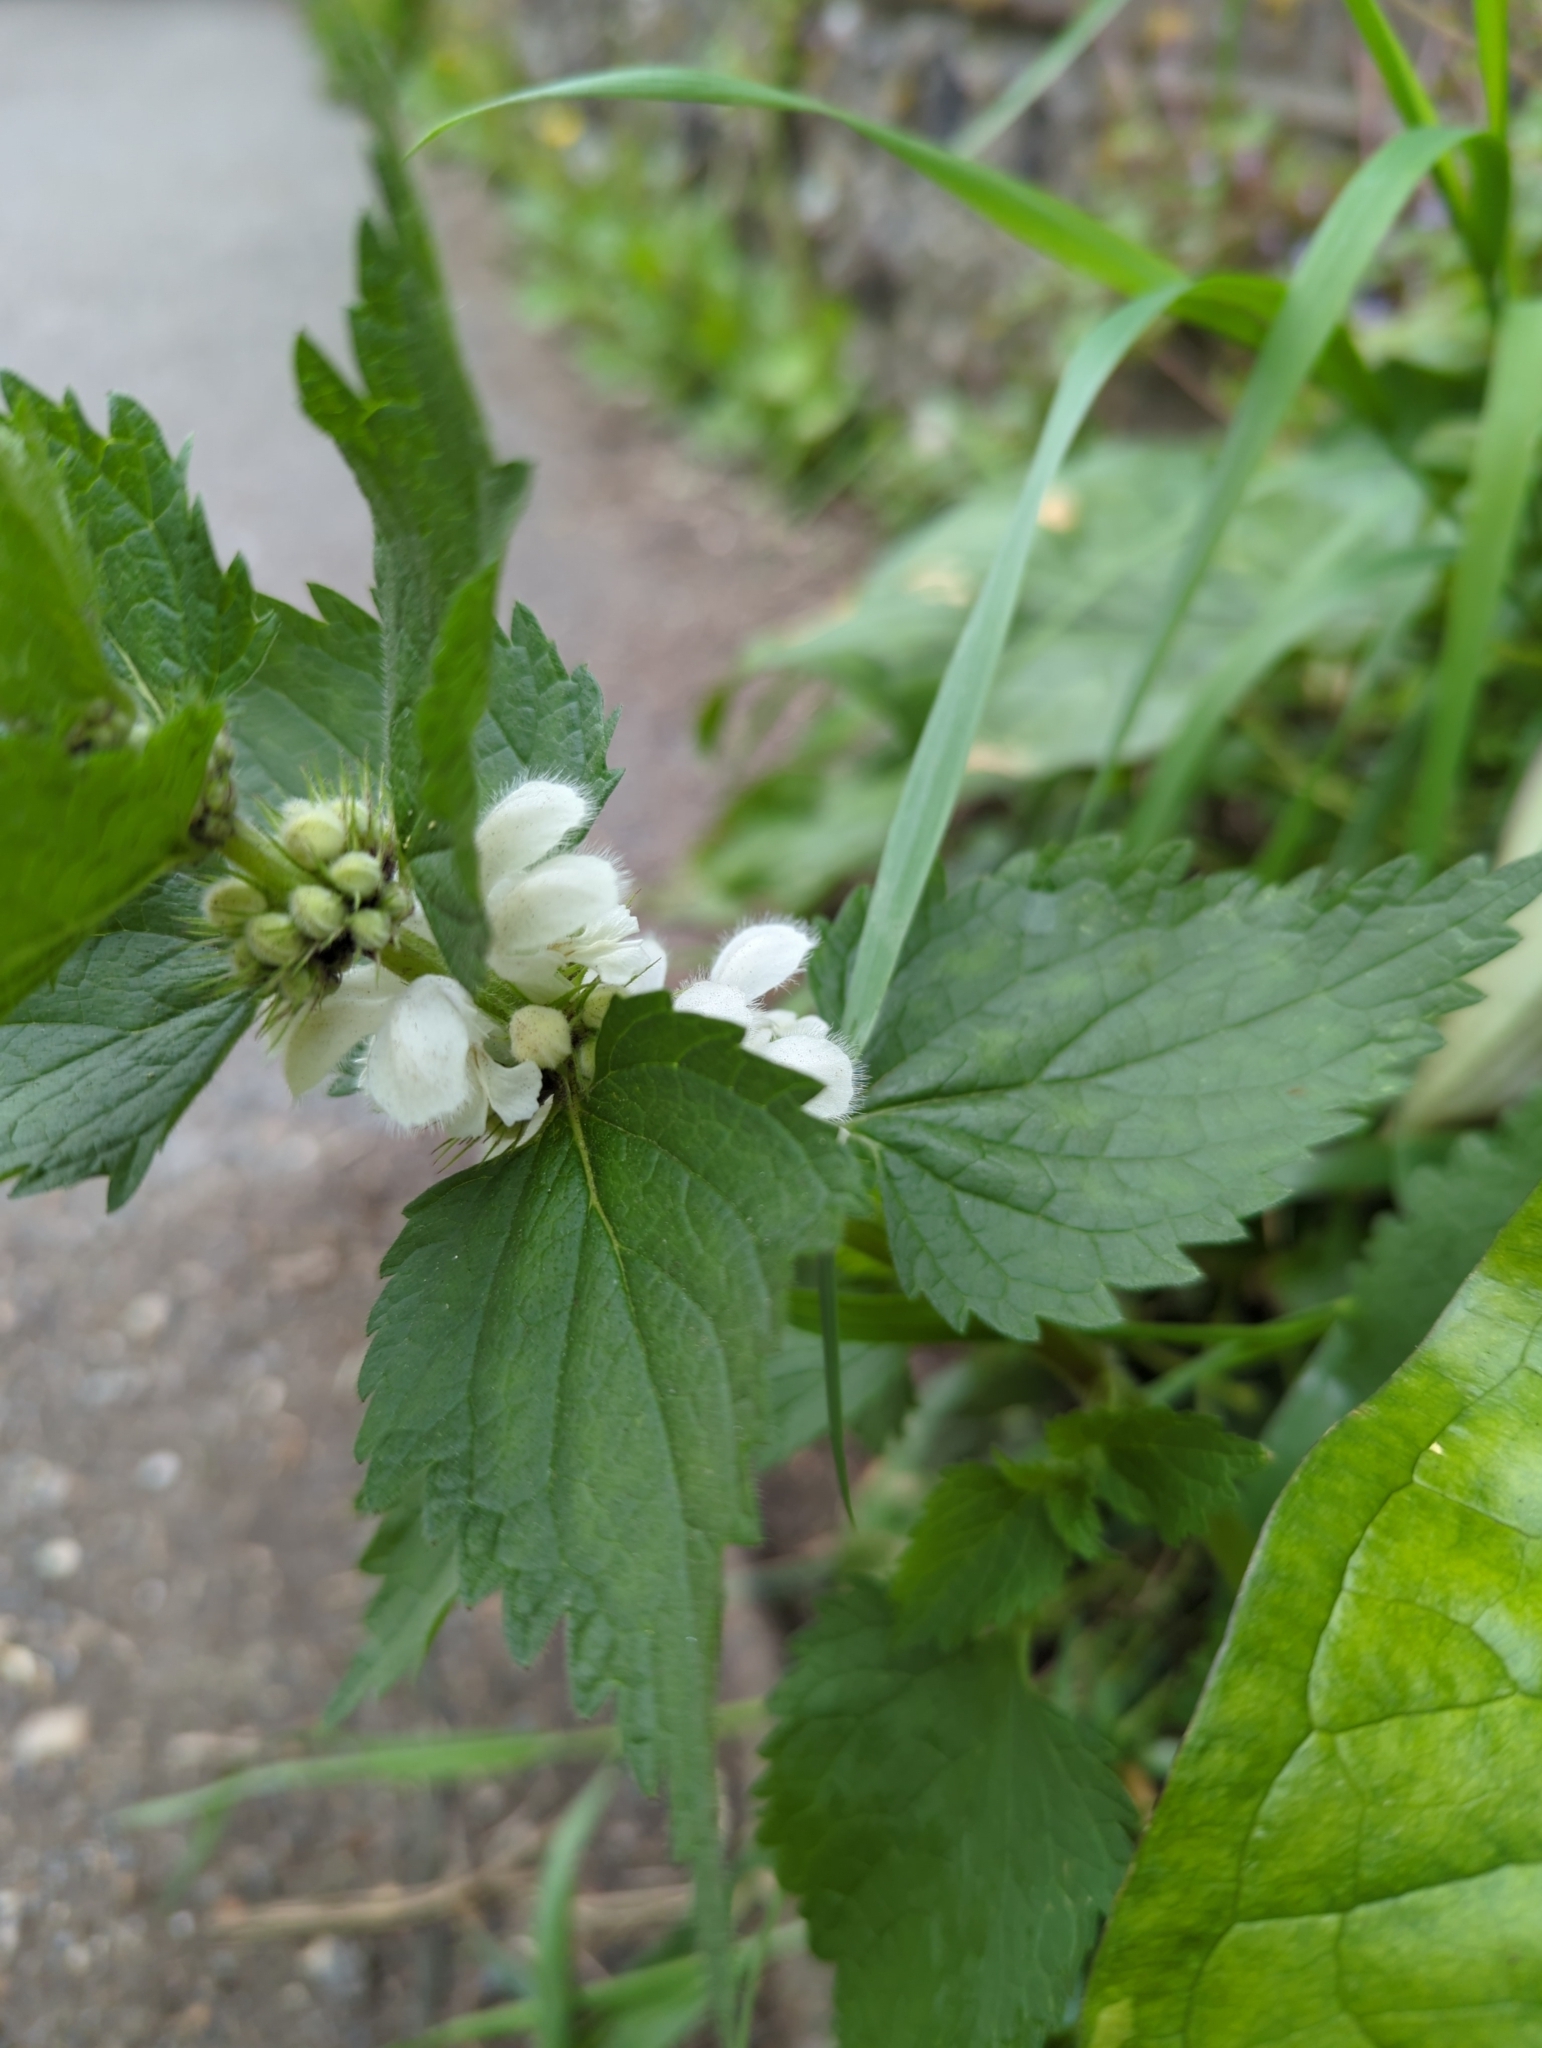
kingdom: Plantae
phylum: Tracheophyta
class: Magnoliopsida
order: Lamiales
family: Lamiaceae
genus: Lamium
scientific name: Lamium album
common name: White dead-nettle
